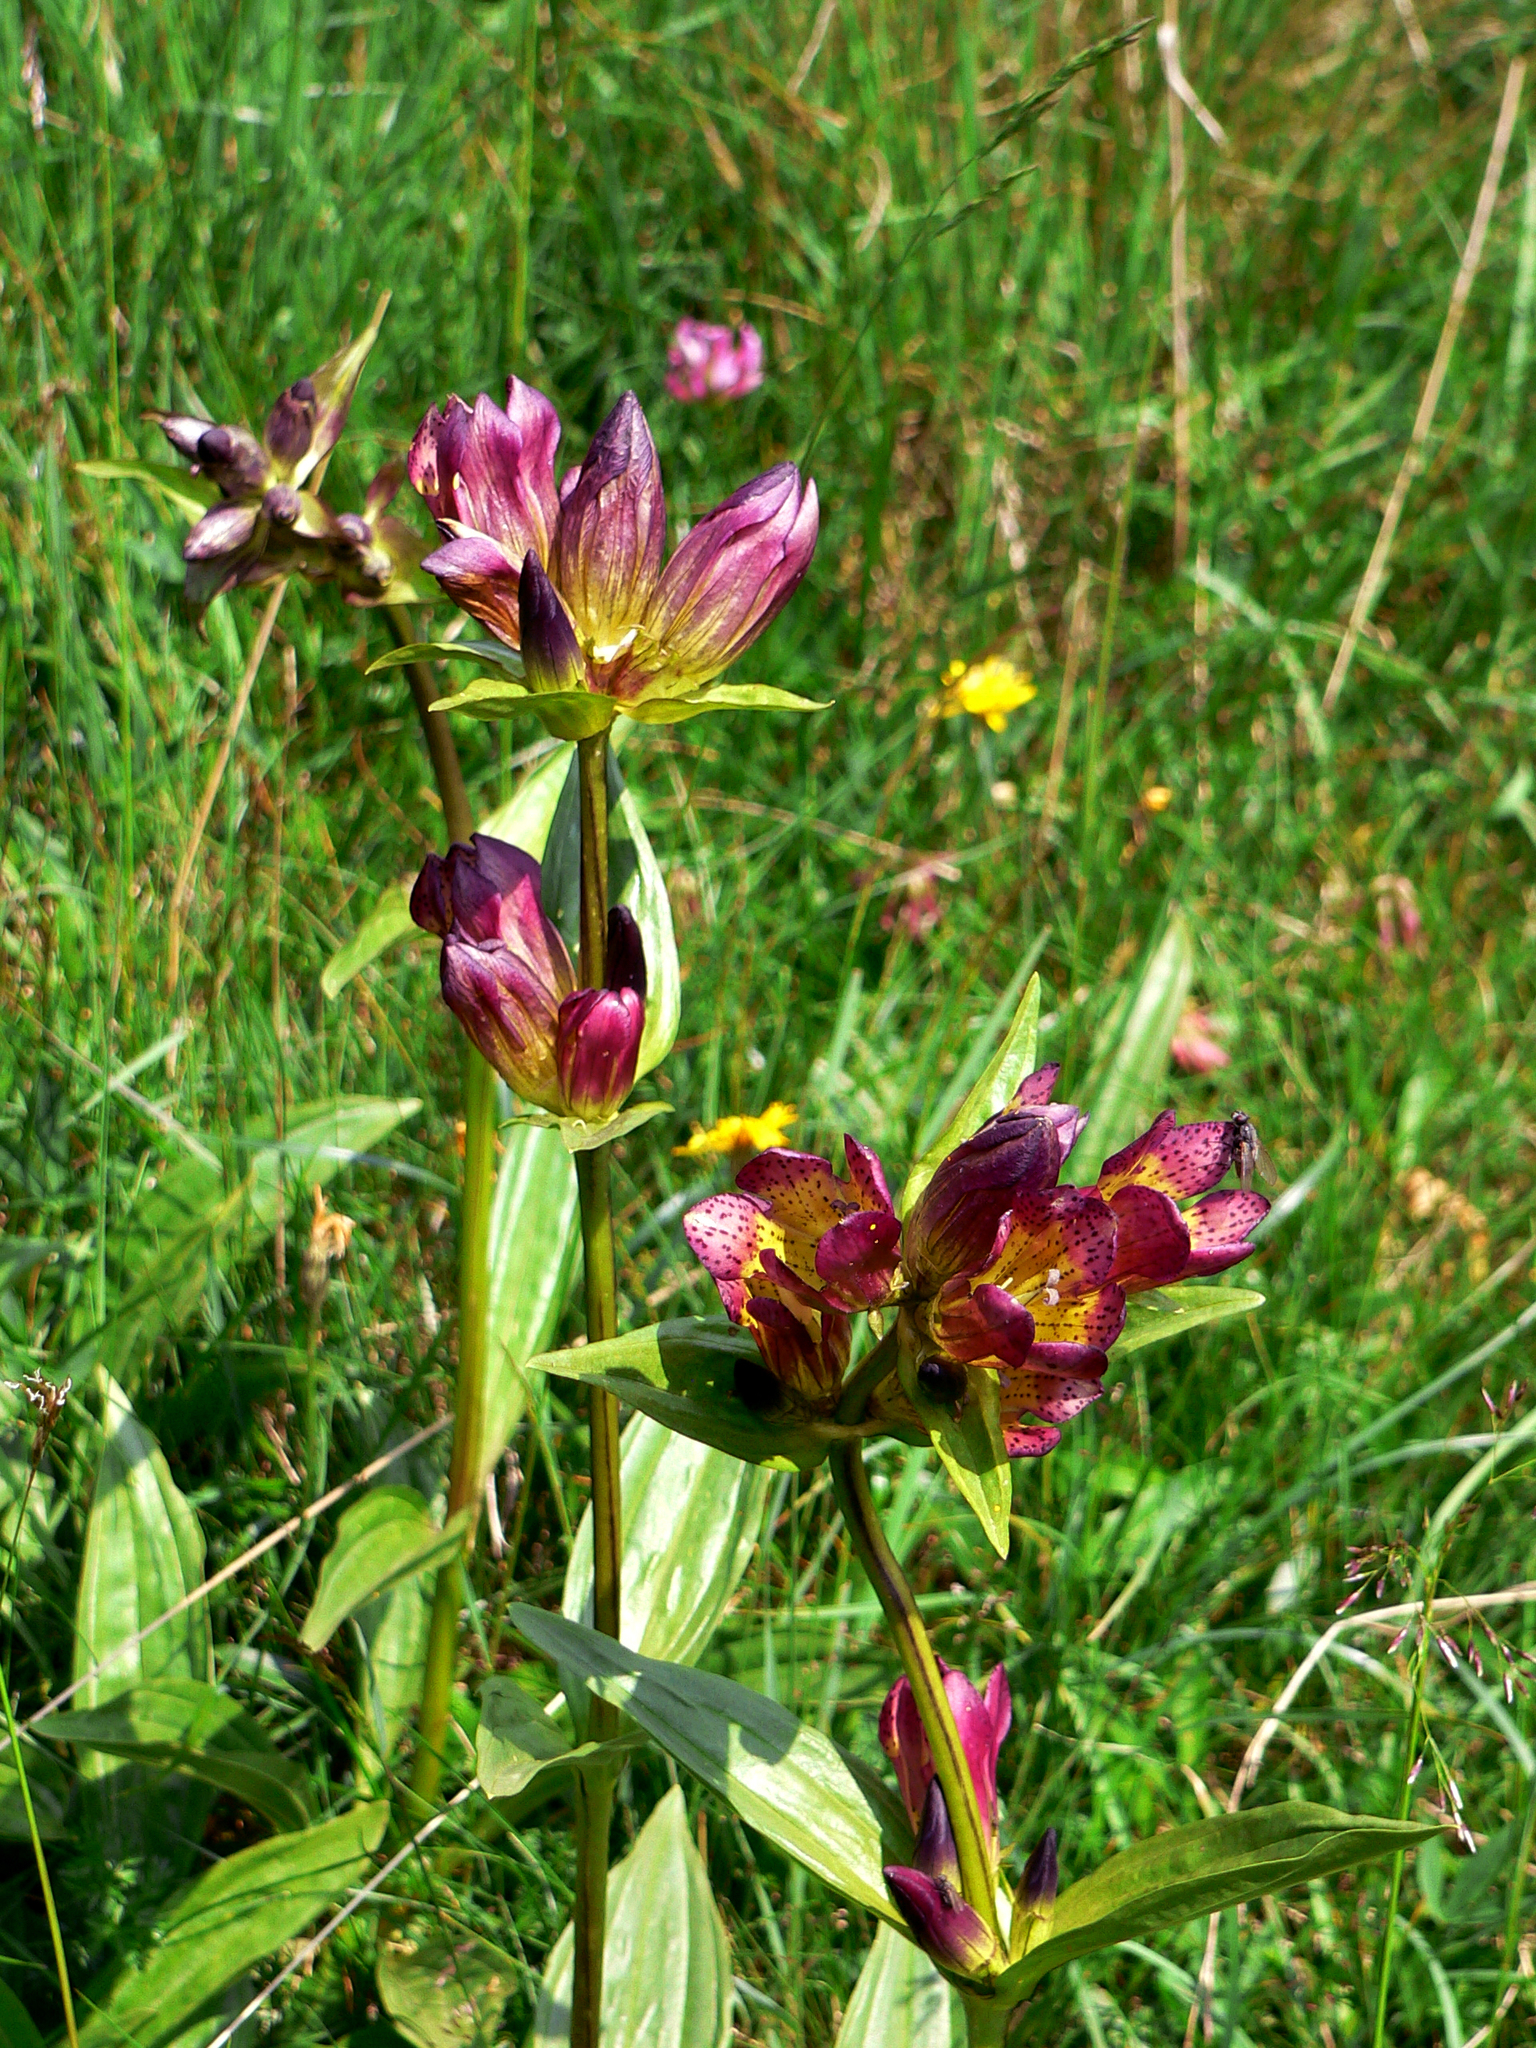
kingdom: Plantae
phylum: Tracheophyta
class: Magnoliopsida
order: Gentianales
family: Gentianaceae
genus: Gentiana
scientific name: Gentiana purpurea
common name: Purple gentian
